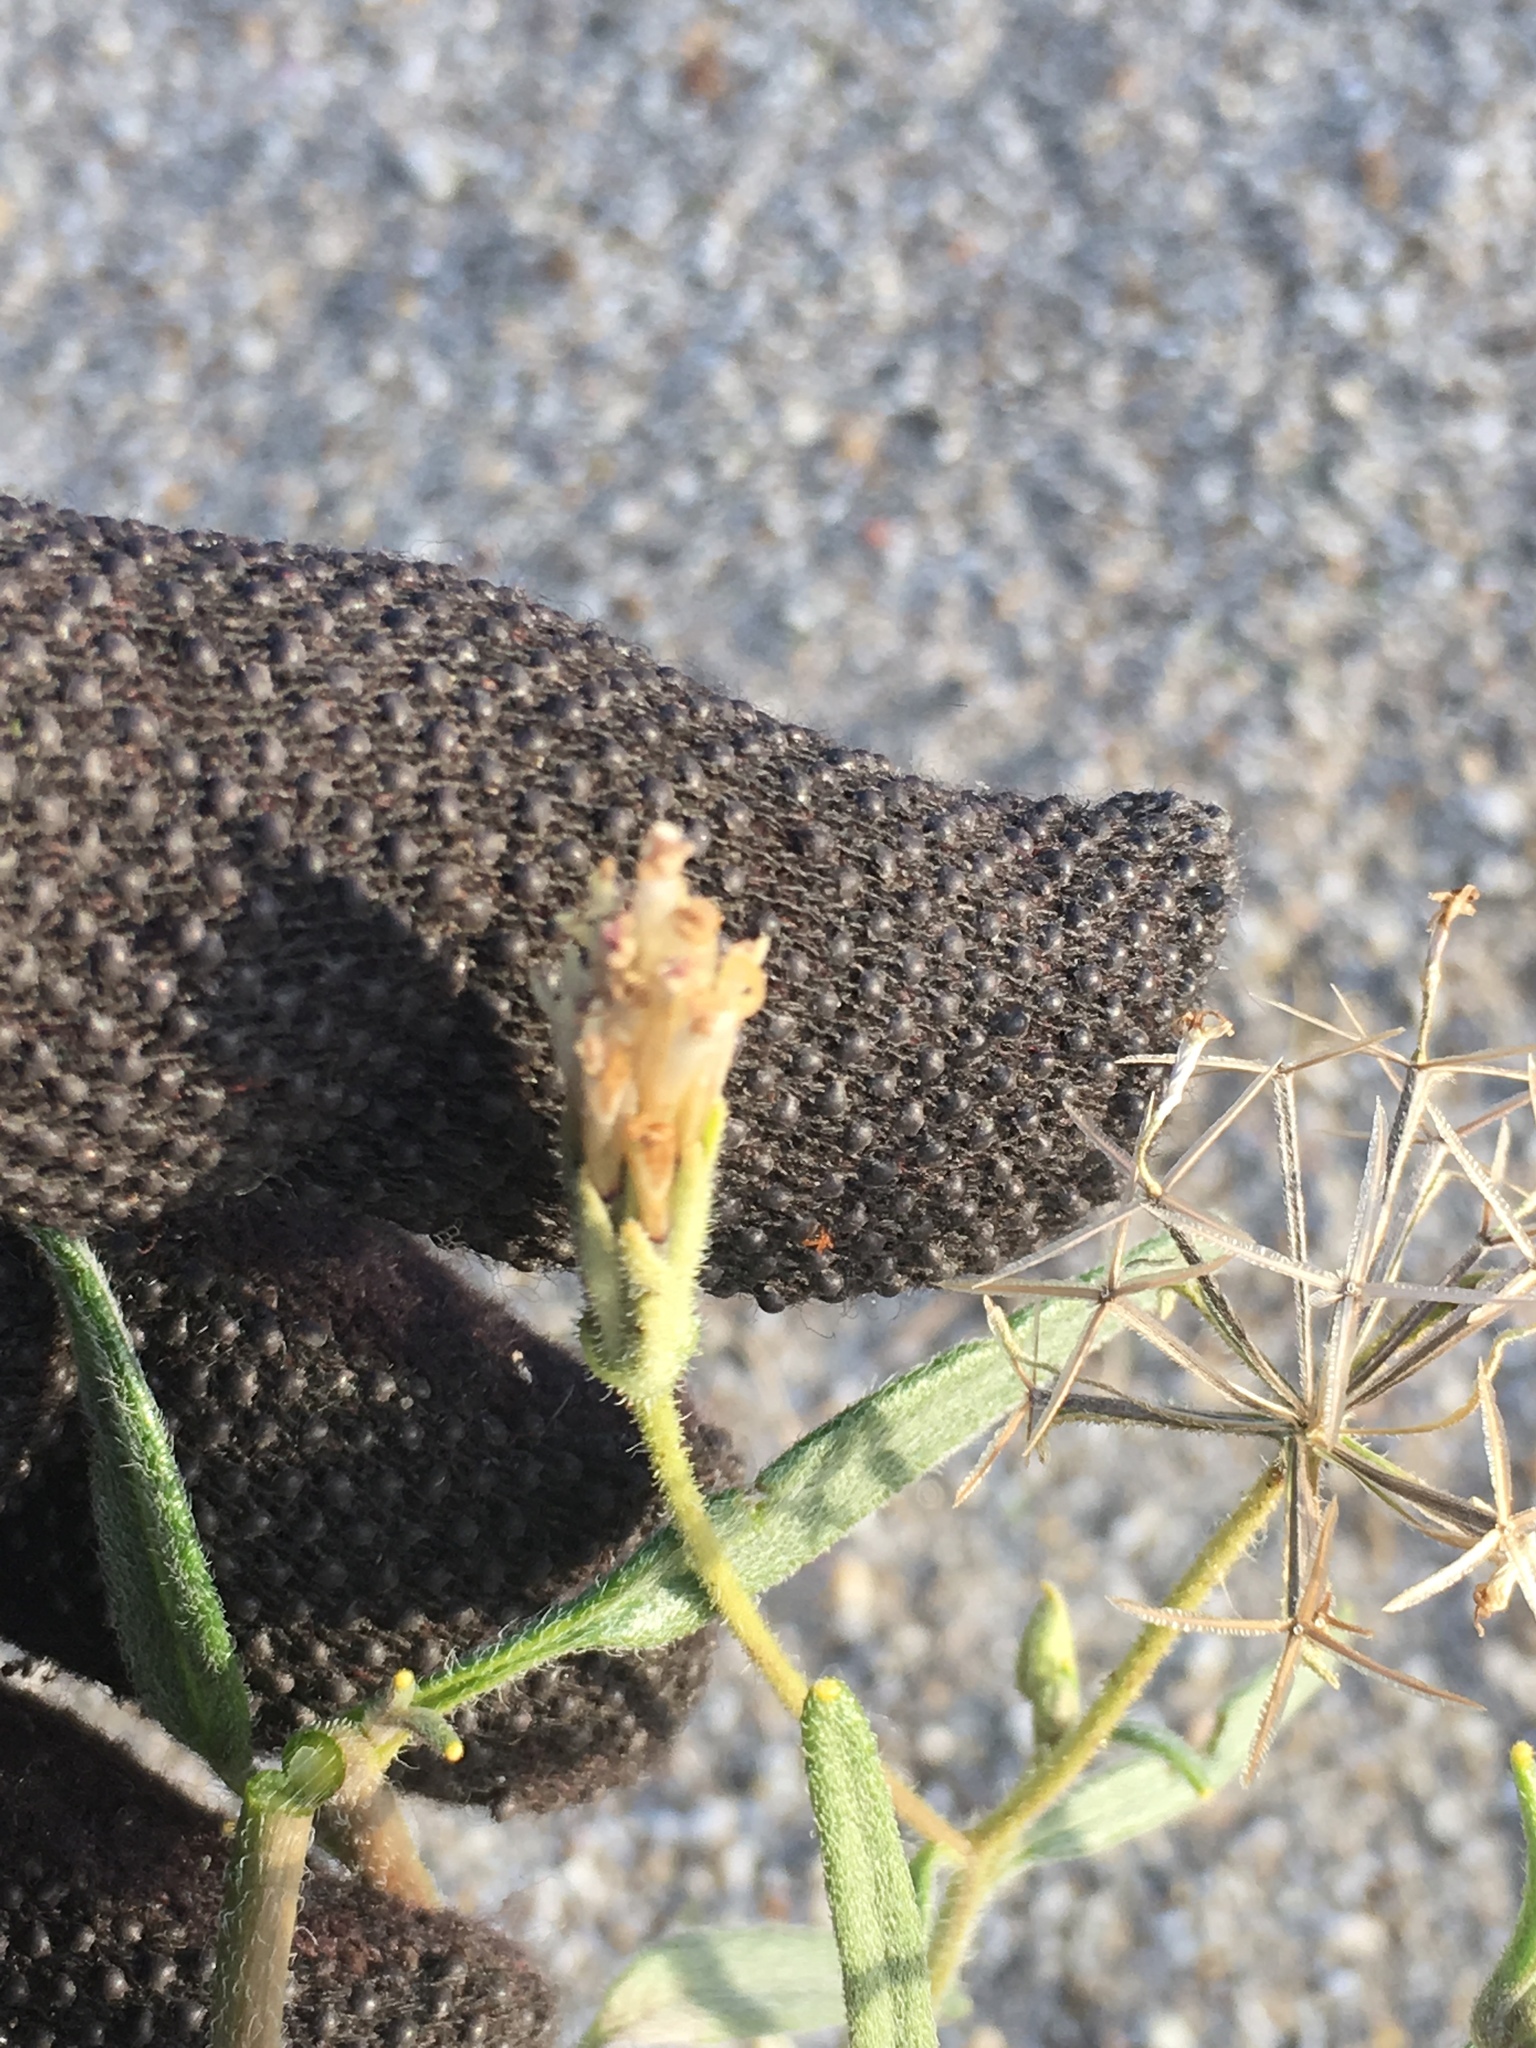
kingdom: Plantae
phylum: Tracheophyta
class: Magnoliopsida
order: Asterales
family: Asteraceae
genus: Palafoxia
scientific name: Palafoxia arida
